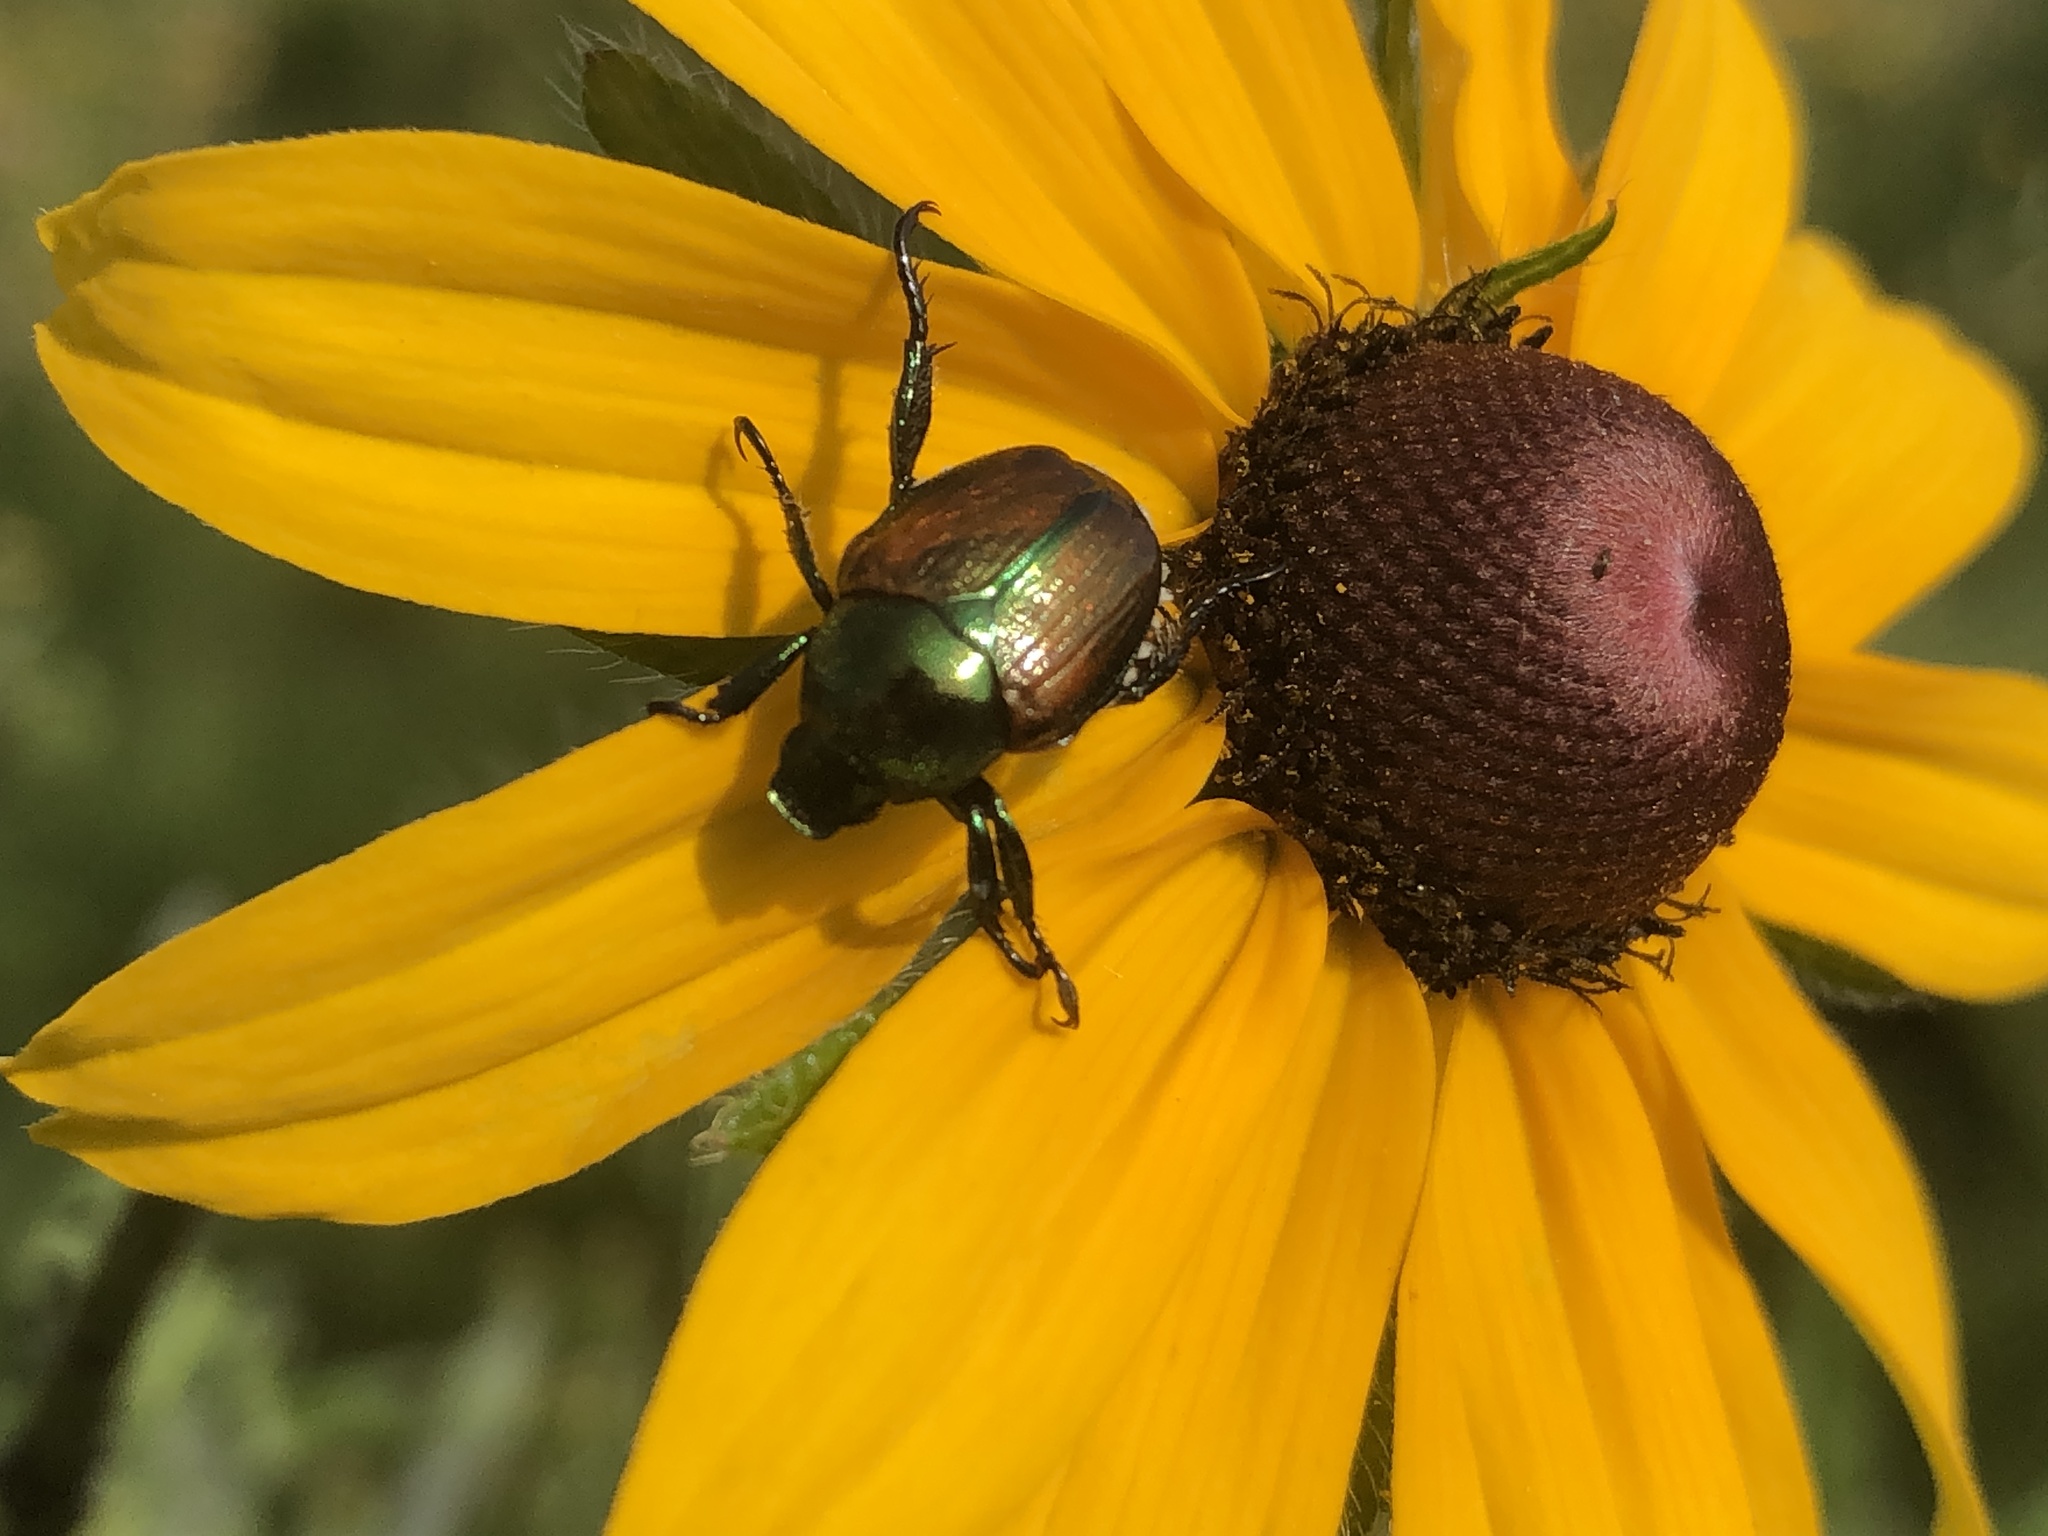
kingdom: Animalia
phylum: Arthropoda
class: Insecta
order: Coleoptera
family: Scarabaeidae
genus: Popillia
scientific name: Popillia japonica
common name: Japanese beetle
